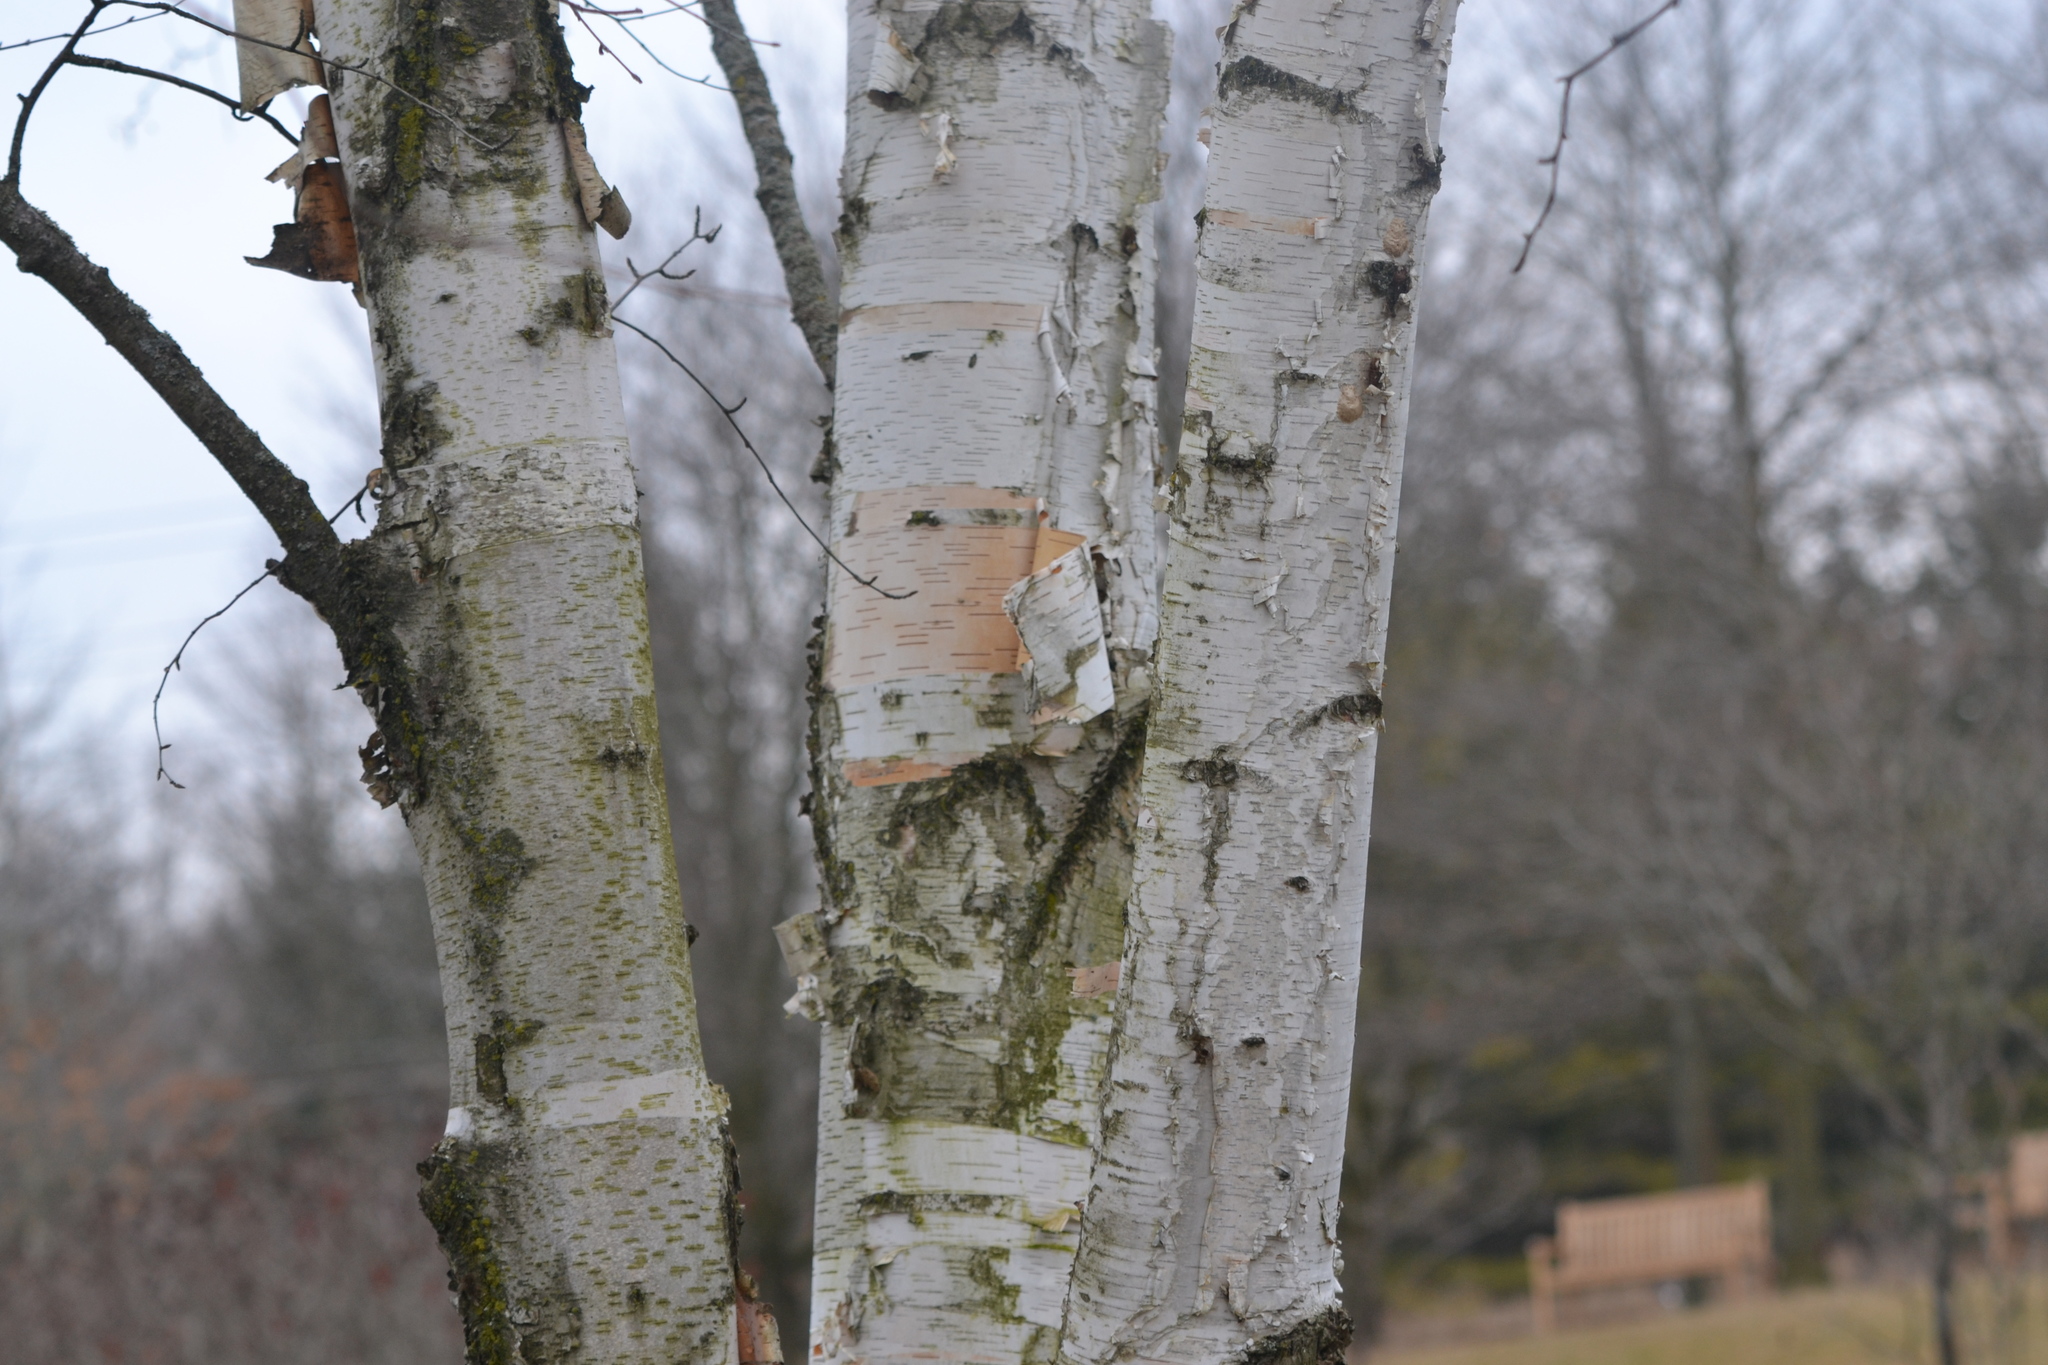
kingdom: Plantae
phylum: Tracheophyta
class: Magnoliopsida
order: Fagales
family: Betulaceae
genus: Betula
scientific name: Betula papyrifera
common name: Paper birch
